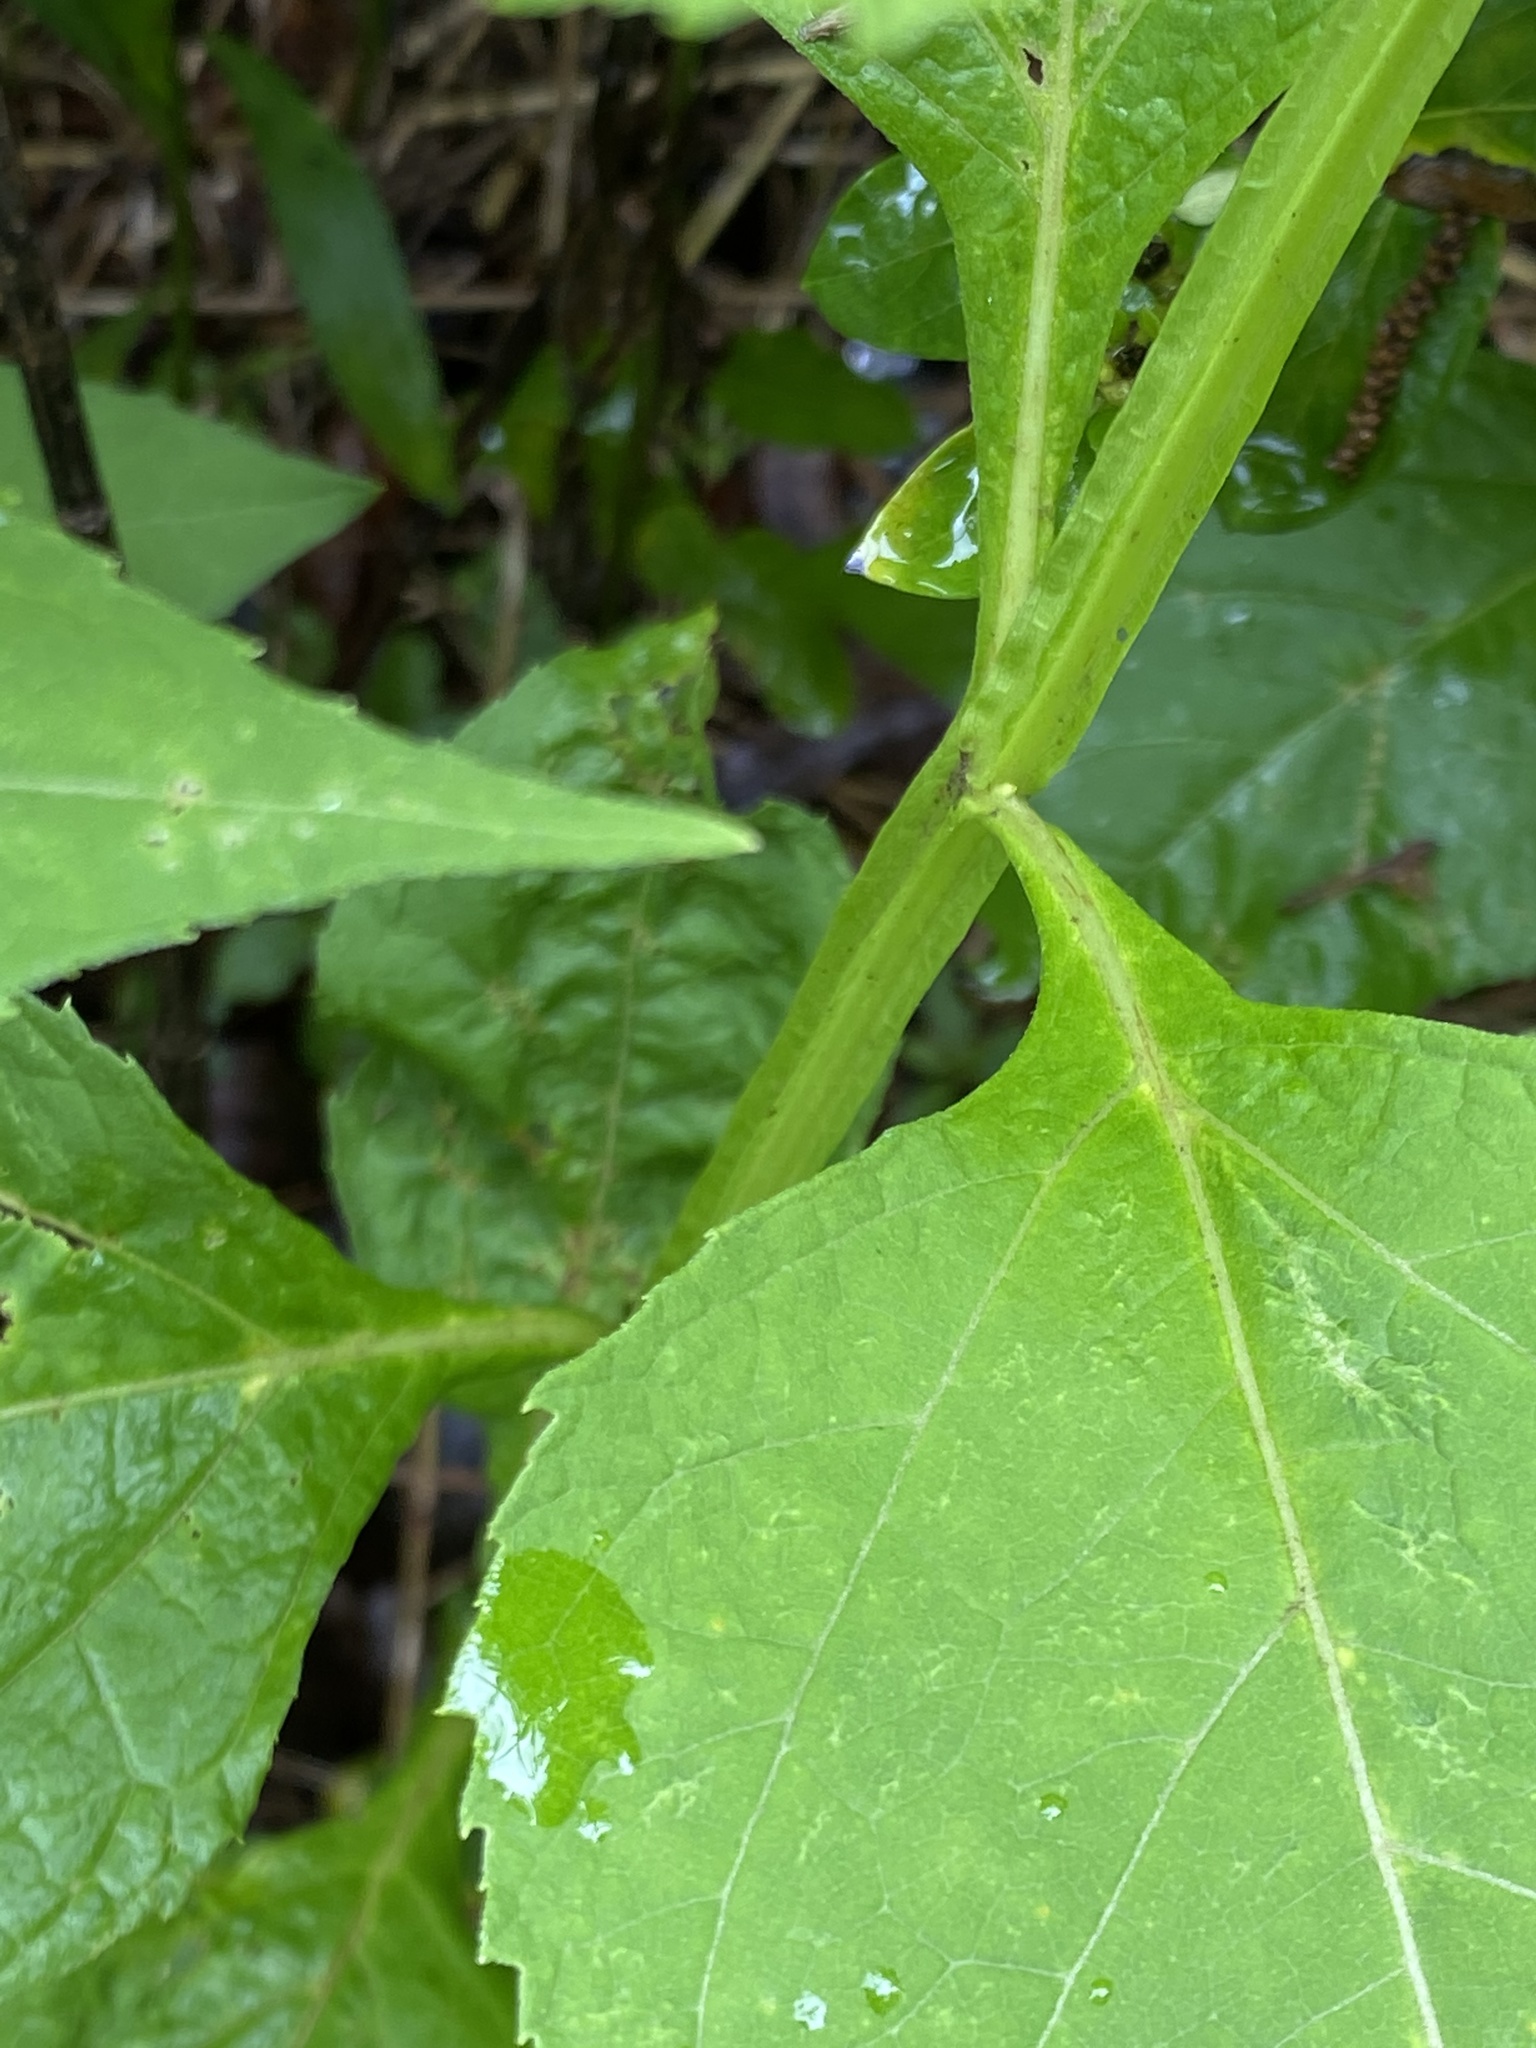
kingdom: Plantae
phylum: Tracheophyta
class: Magnoliopsida
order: Asterales
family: Asteraceae
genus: Verbesina
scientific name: Verbesina occidentalis
